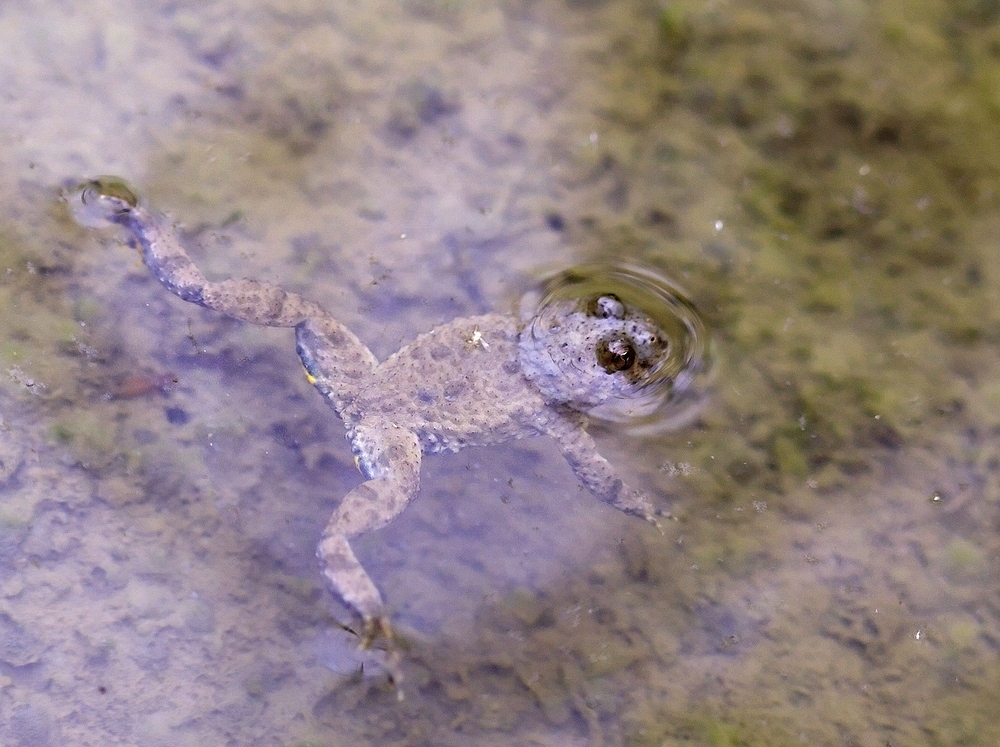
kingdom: Animalia
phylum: Chordata
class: Amphibia
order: Anura
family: Bombinatoridae
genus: Bombina
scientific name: Bombina variegata
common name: Yellow-bellied toad
